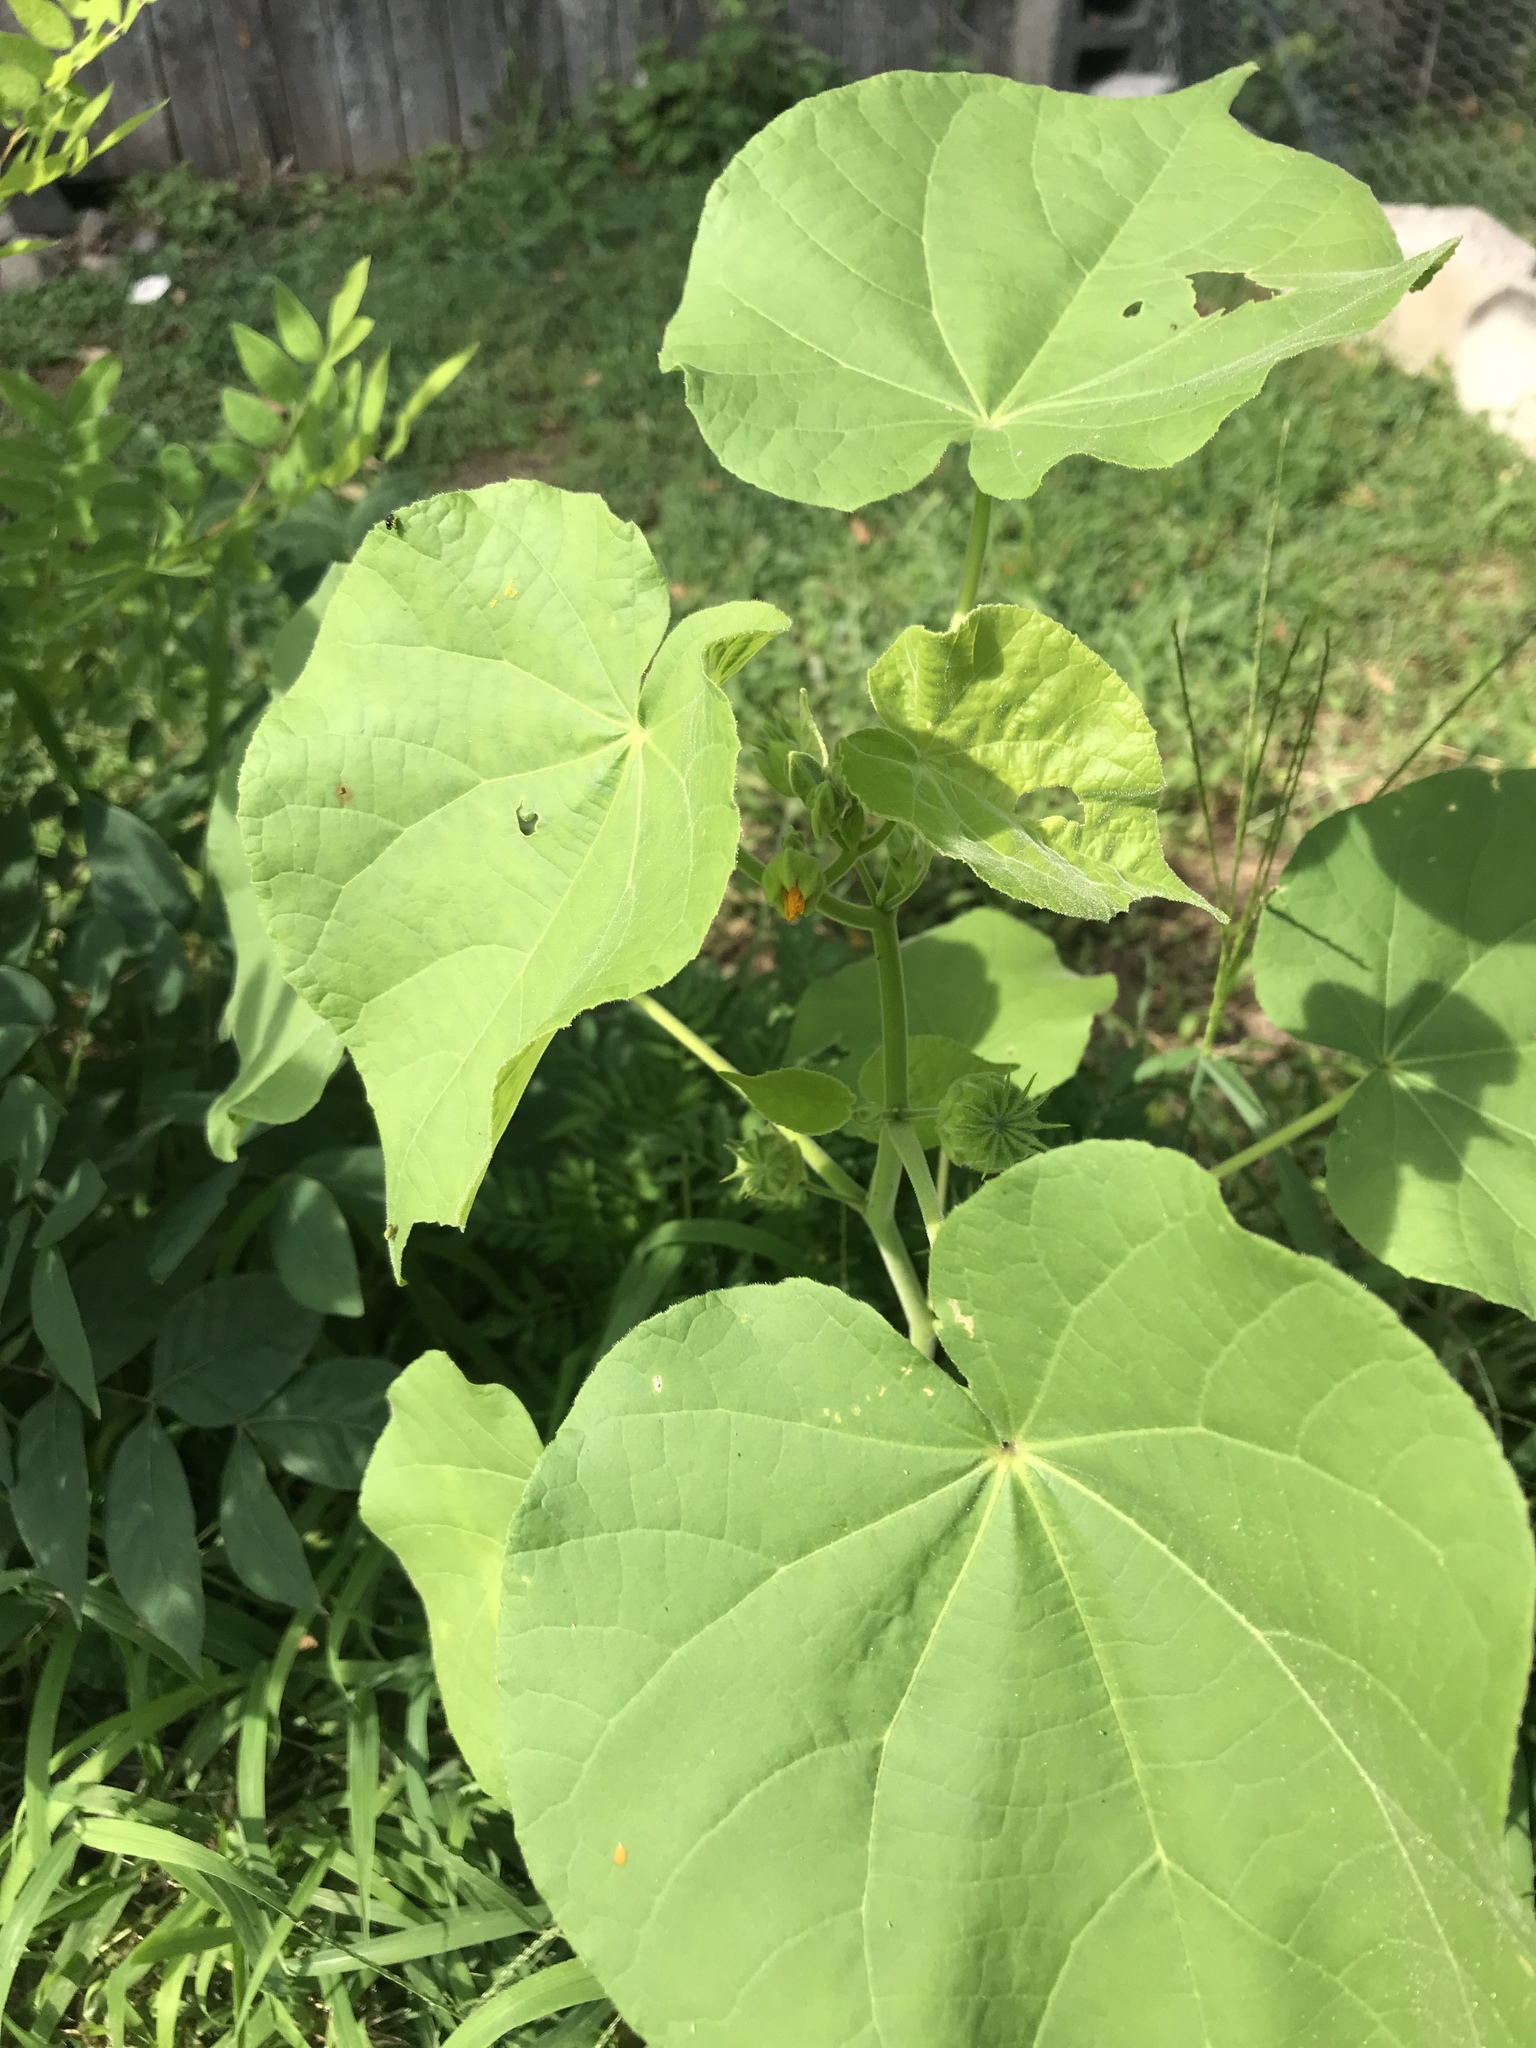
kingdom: Plantae
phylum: Tracheophyta
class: Magnoliopsida
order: Malvales
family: Malvaceae
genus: Abutilon
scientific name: Abutilon theophrasti
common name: Velvetleaf
